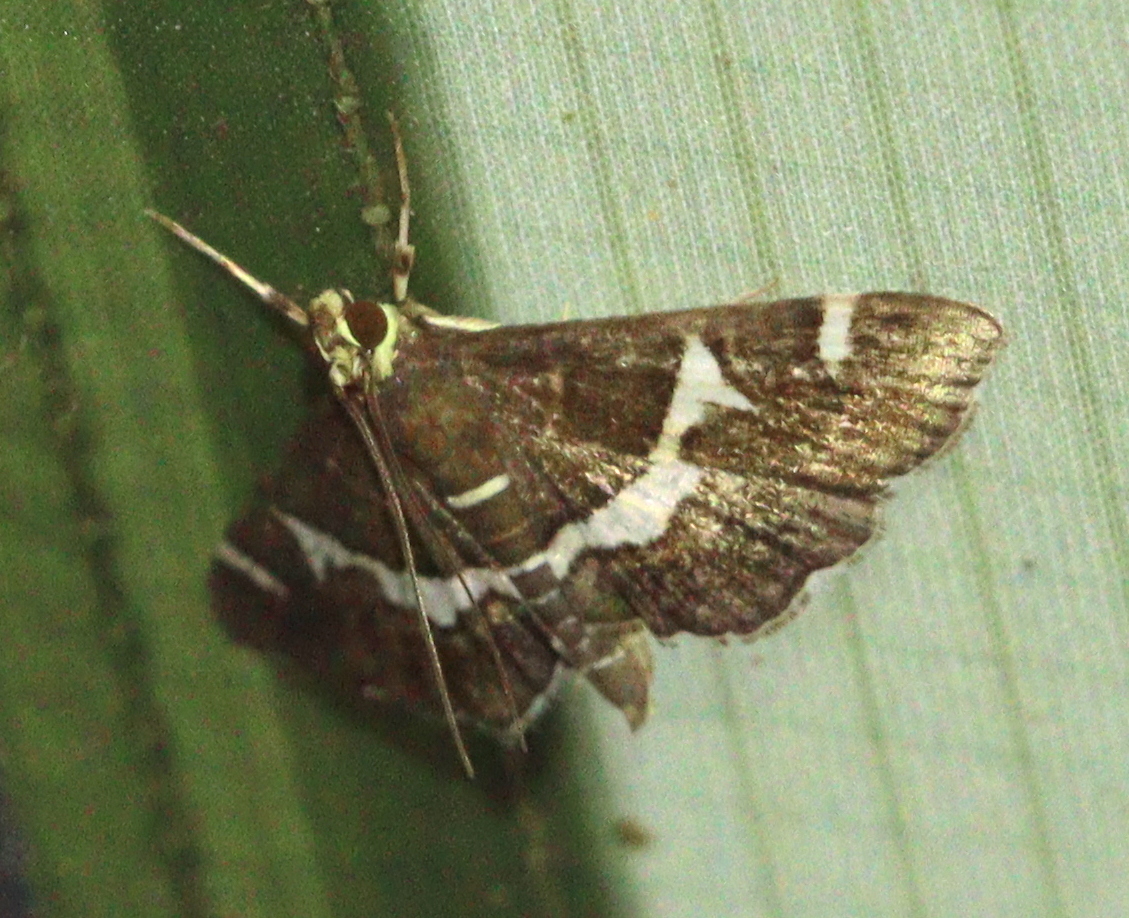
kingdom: Animalia
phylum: Arthropoda
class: Insecta
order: Lepidoptera
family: Crambidae
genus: Spoladea
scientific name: Spoladea recurvalis
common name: Beet webworm moth
